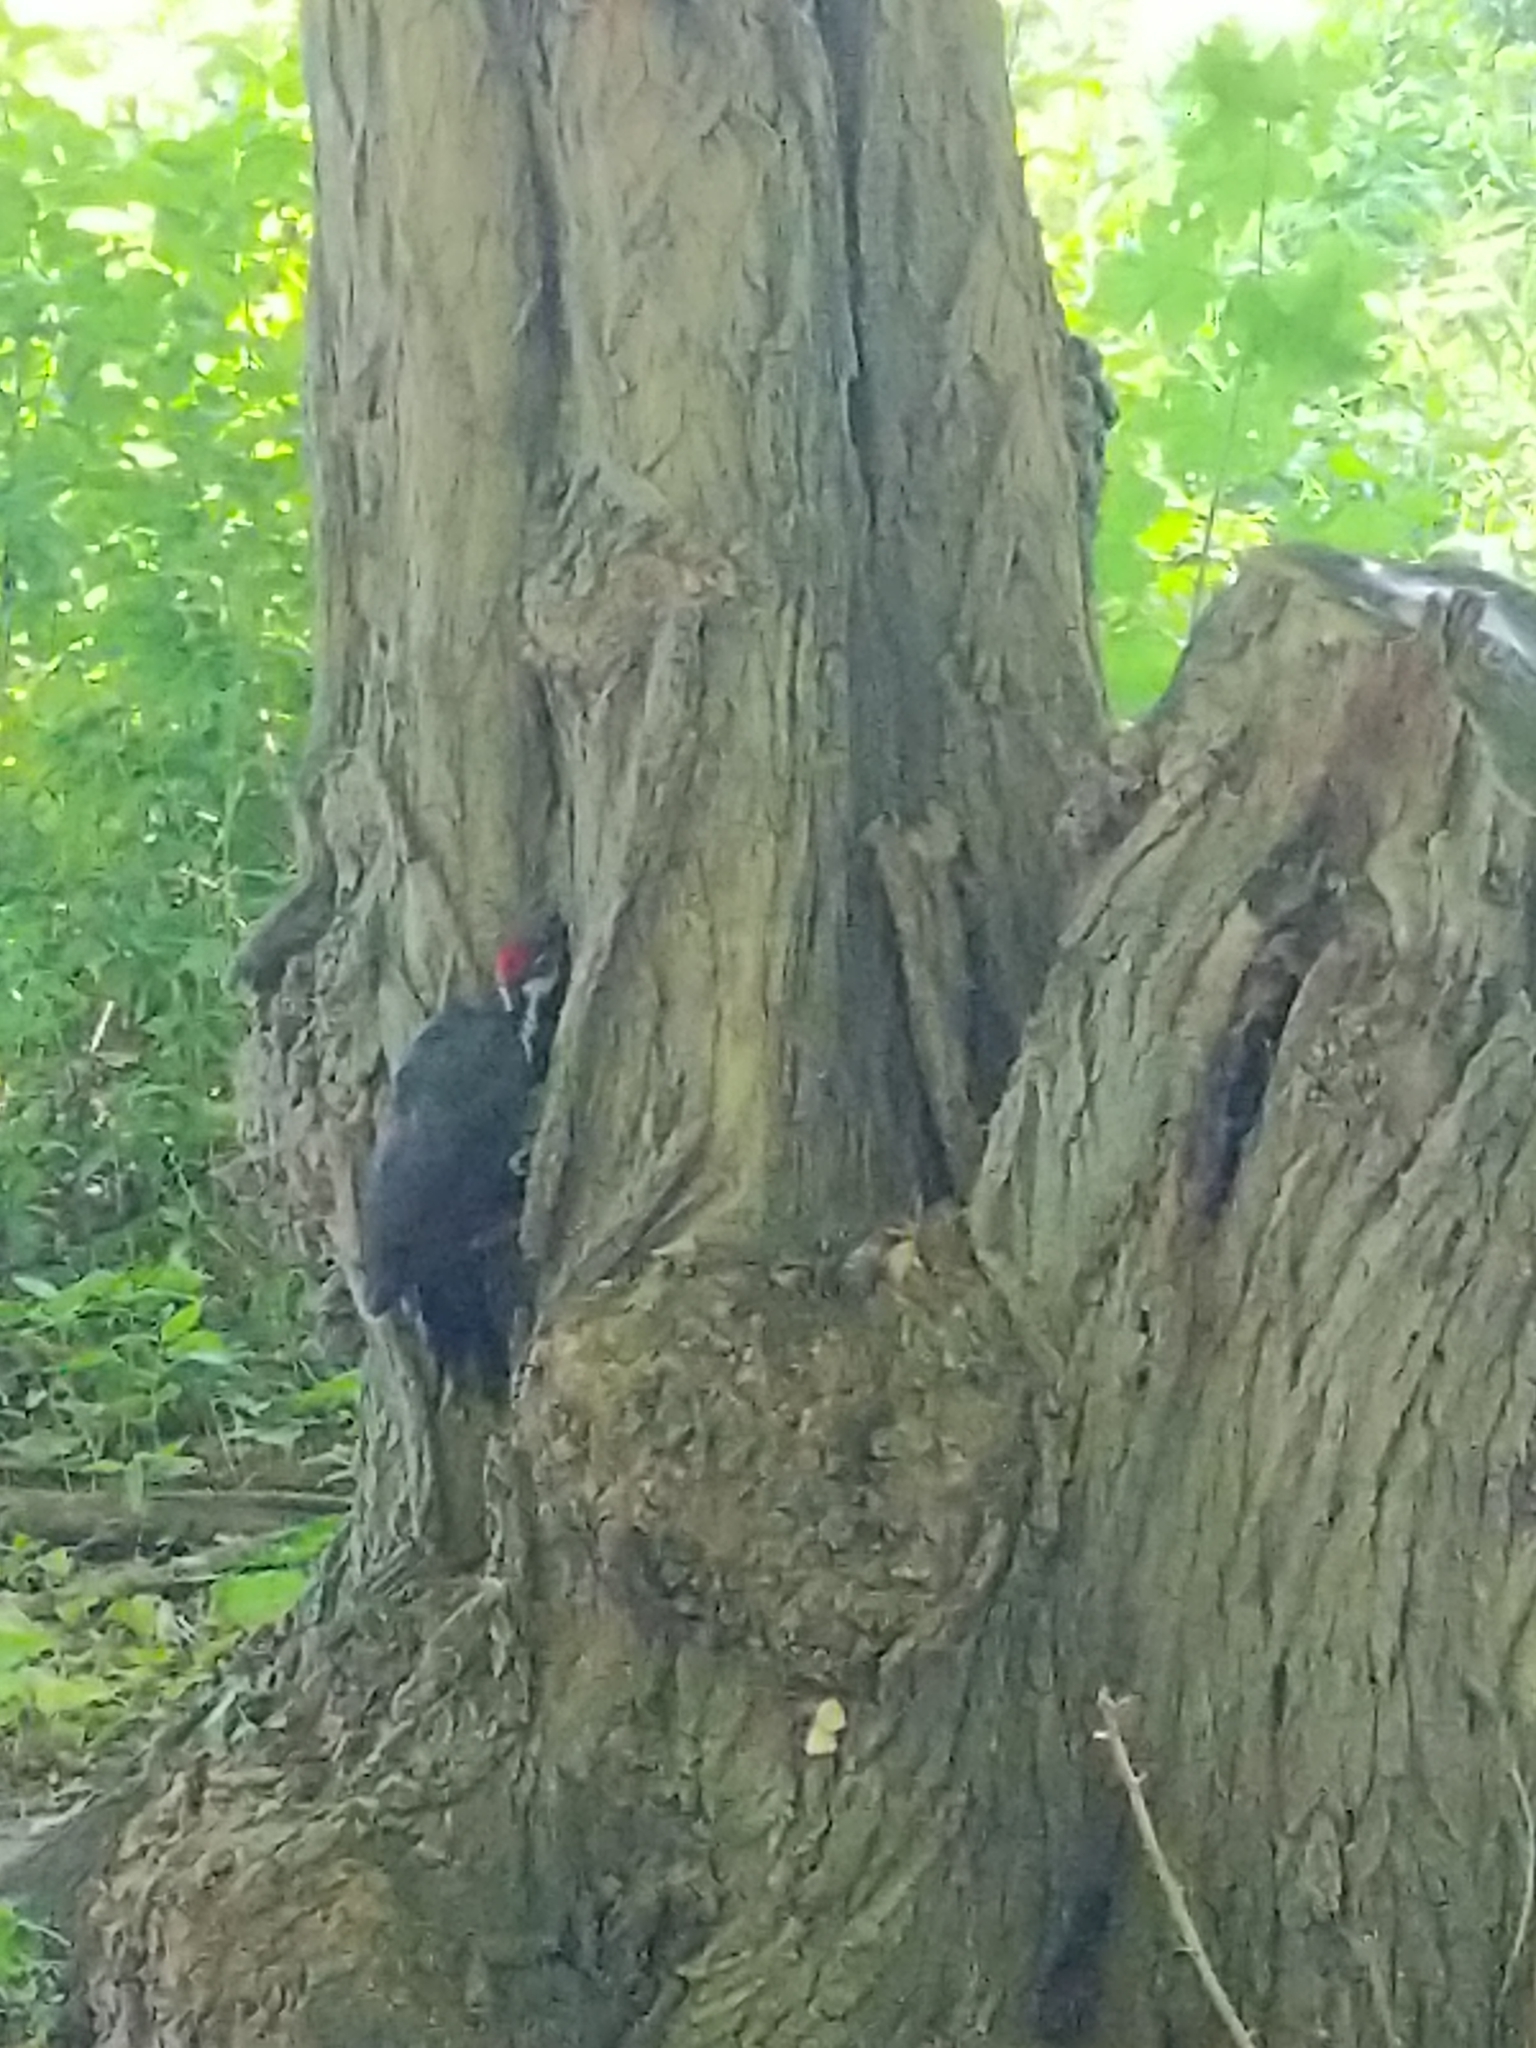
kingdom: Animalia
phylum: Chordata
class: Aves
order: Piciformes
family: Picidae
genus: Dryocopus
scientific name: Dryocopus pileatus
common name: Pileated woodpecker
